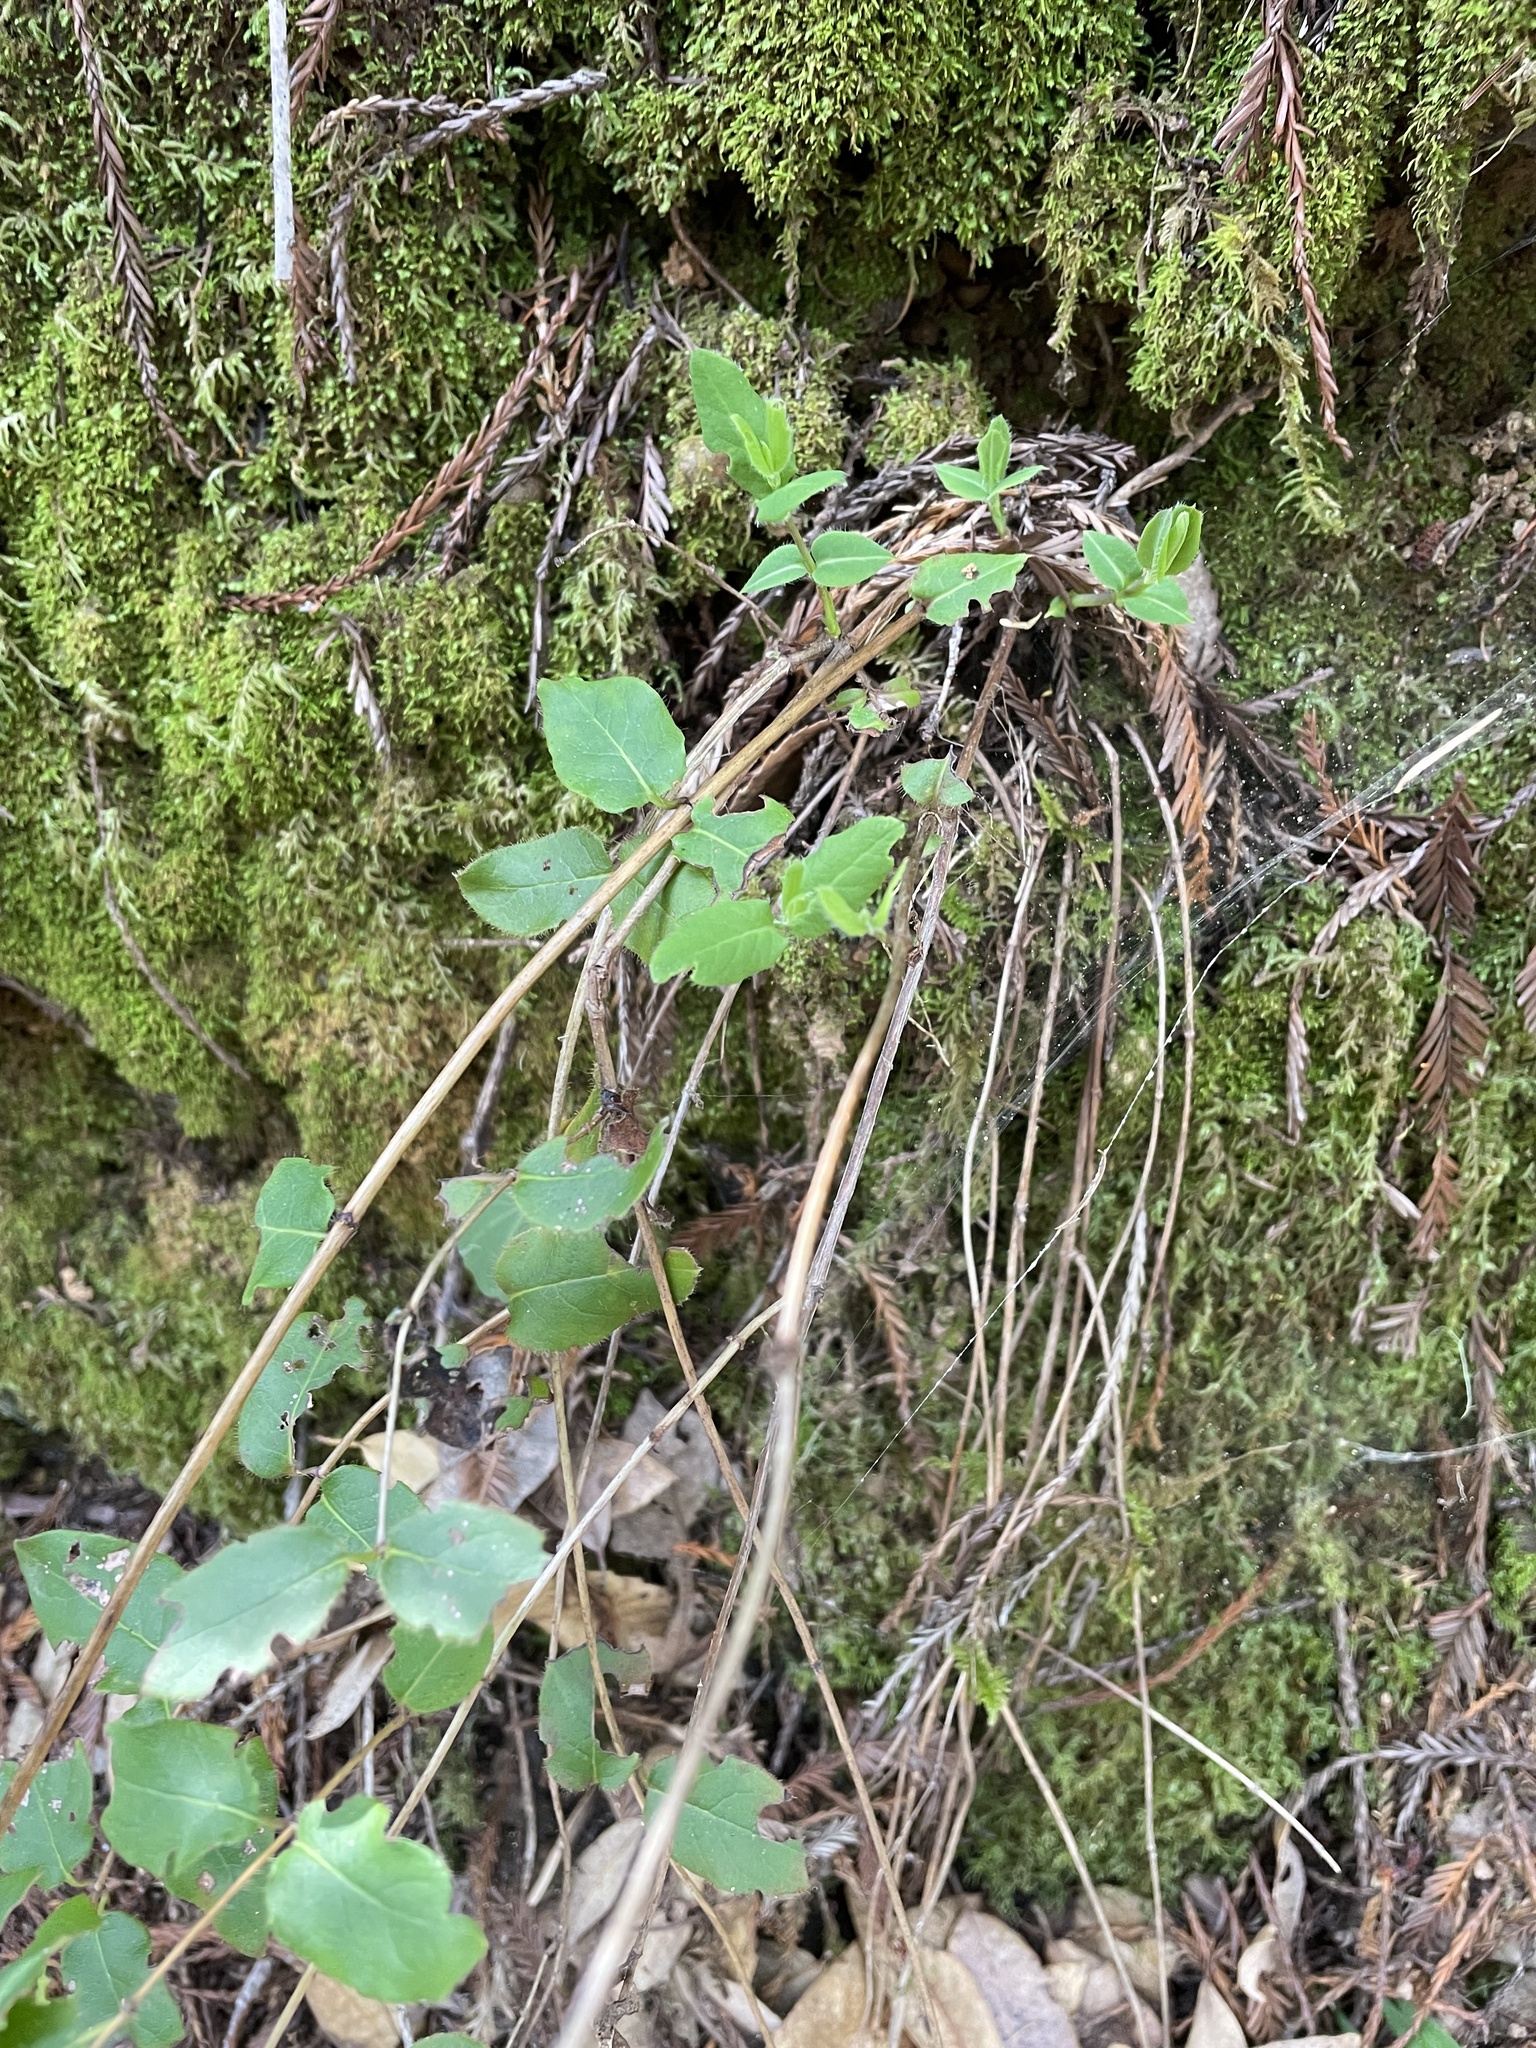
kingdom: Plantae
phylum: Tracheophyta
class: Magnoliopsida
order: Dipsacales
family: Caprifoliaceae
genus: Lonicera
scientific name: Lonicera hispidula
